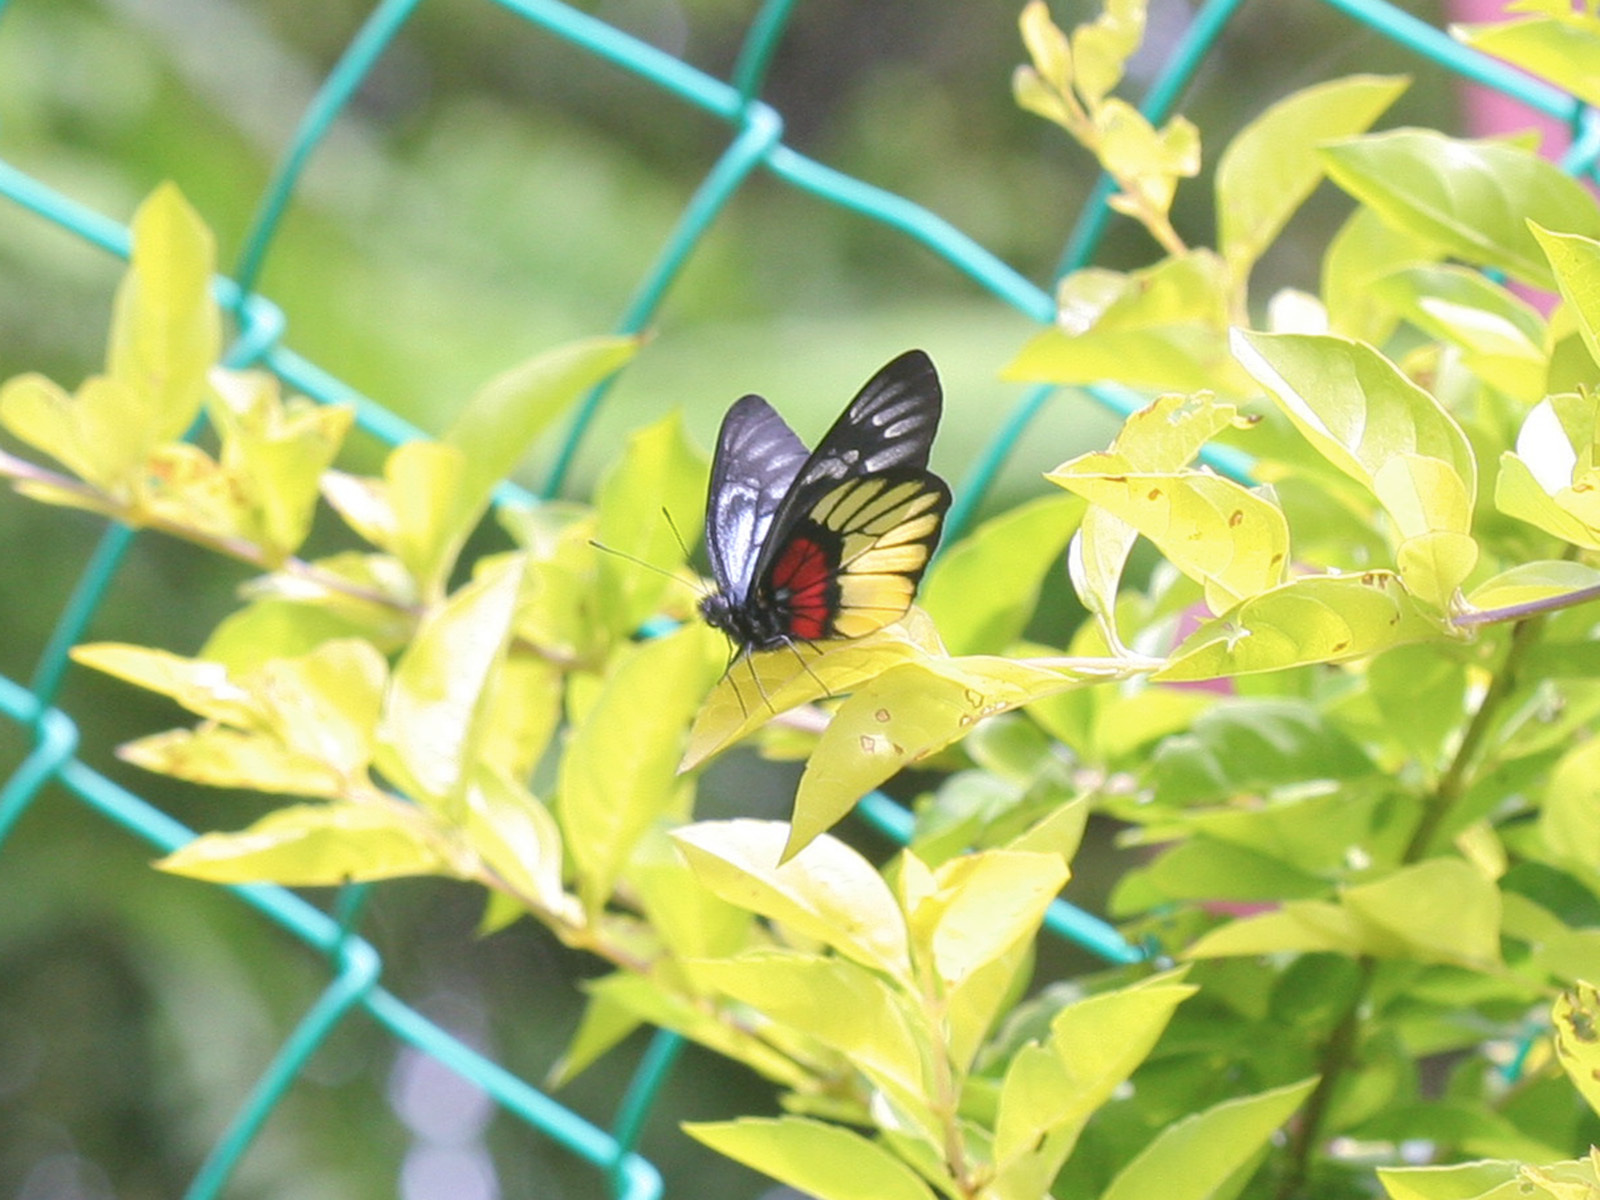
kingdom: Animalia
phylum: Arthropoda
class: Insecta
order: Lepidoptera
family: Pieridae
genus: Delias
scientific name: Delias ninus
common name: Malayan jezebel
